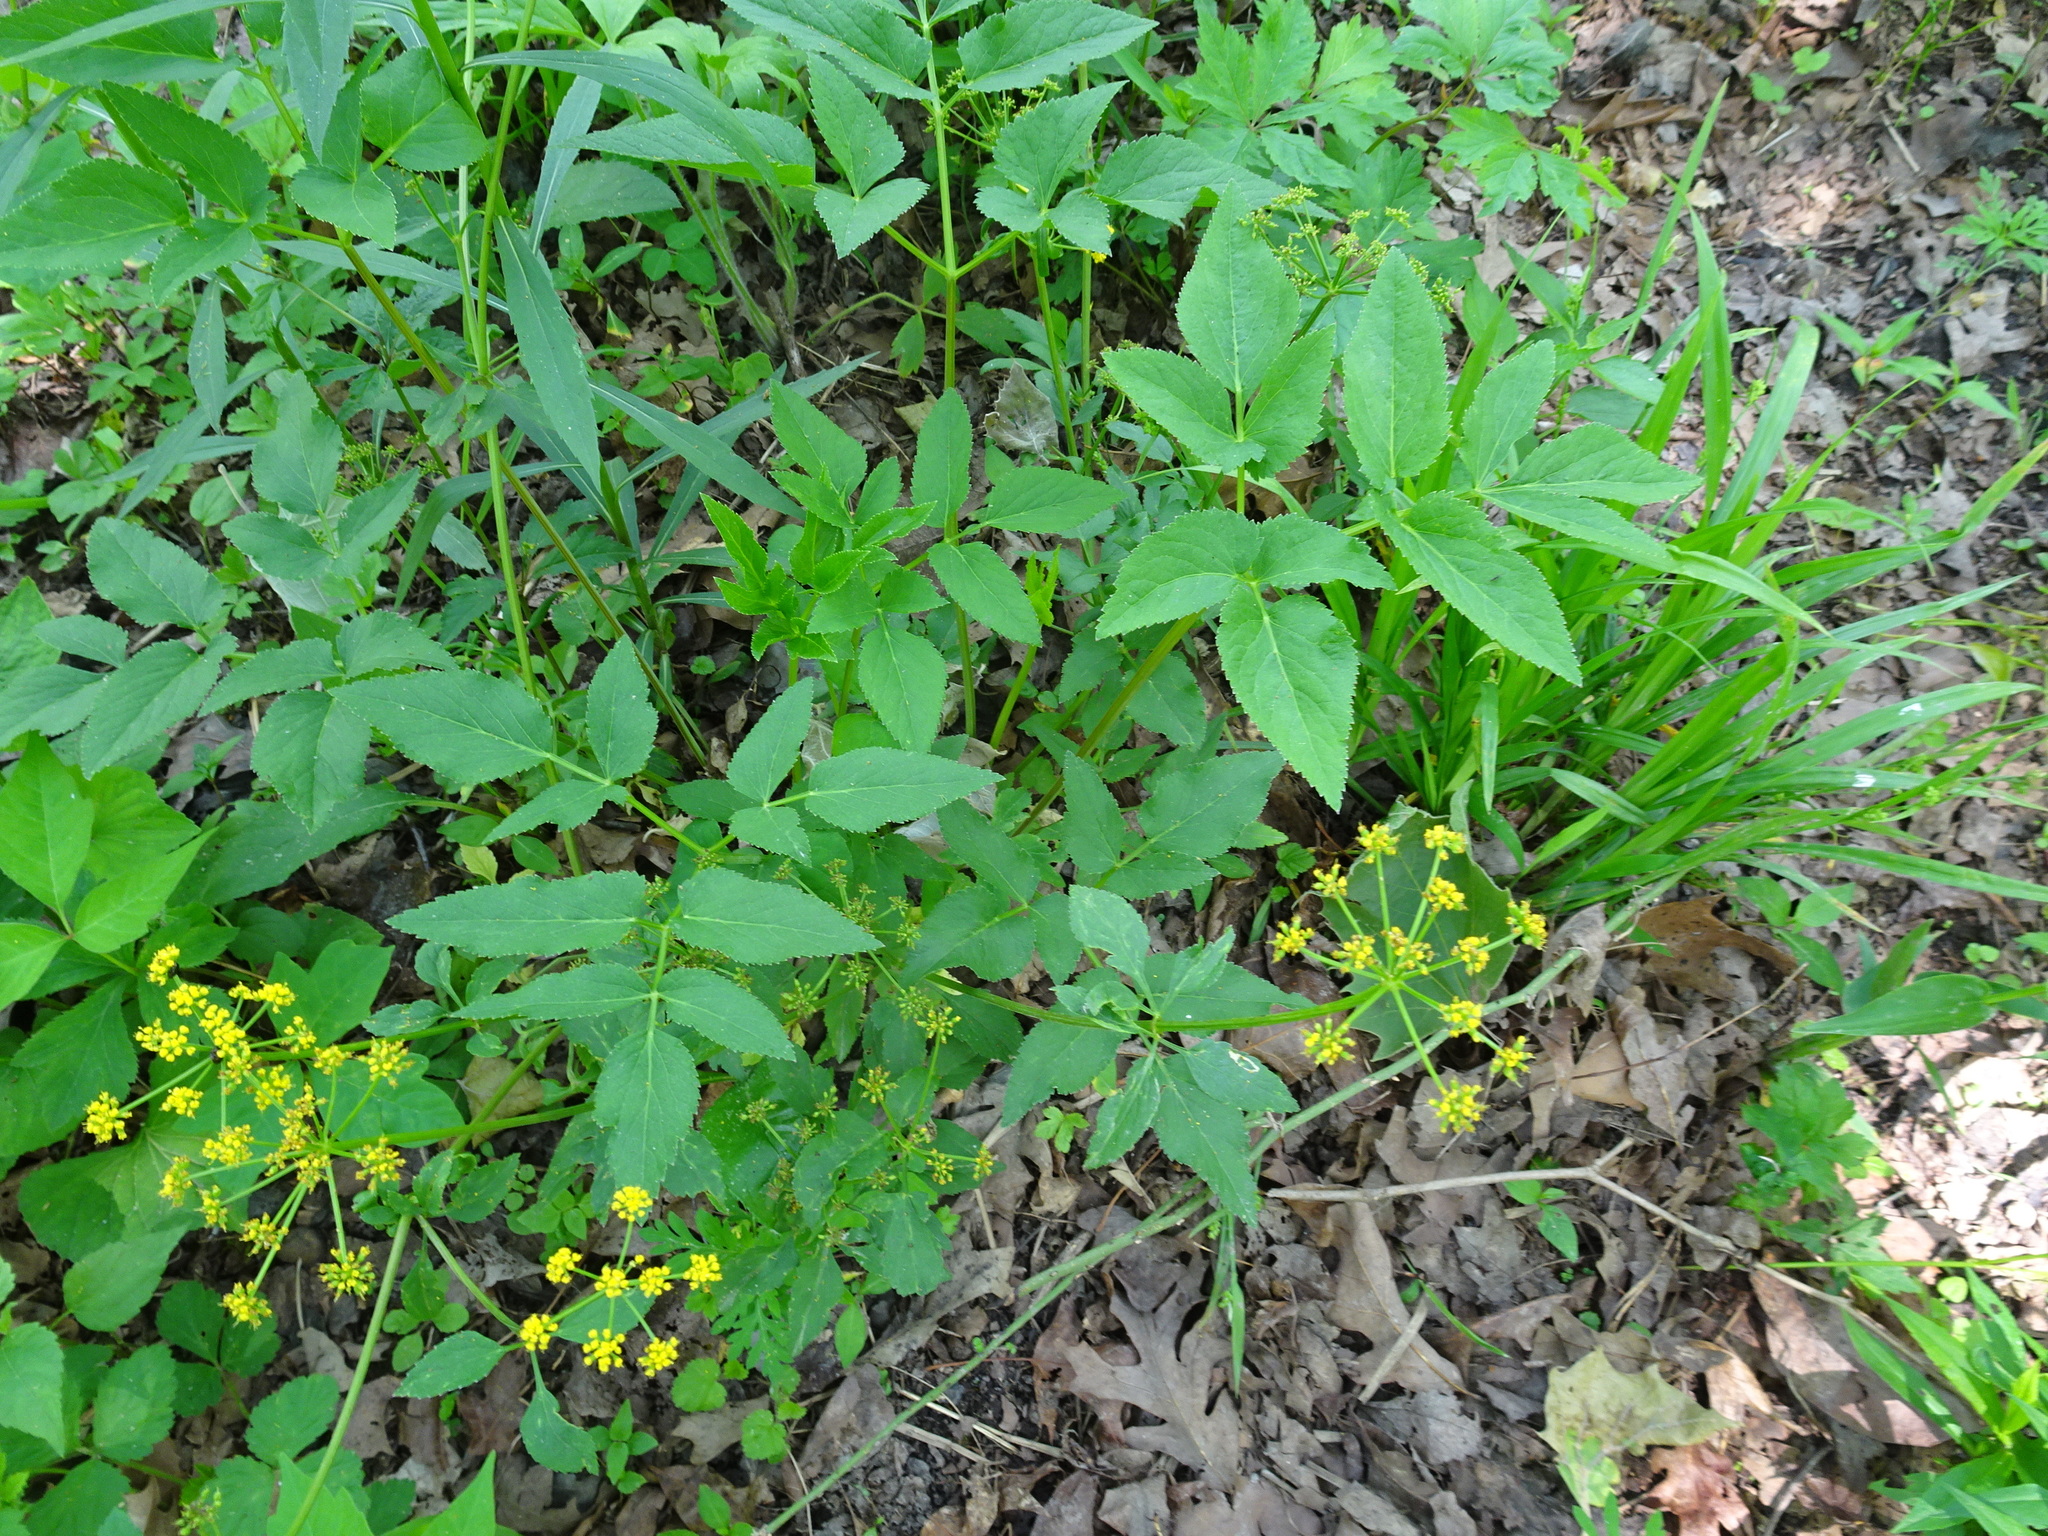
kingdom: Plantae
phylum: Tracheophyta
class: Magnoliopsida
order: Apiales
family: Apiaceae
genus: Zizia
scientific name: Zizia aurea
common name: Golden alexanders
